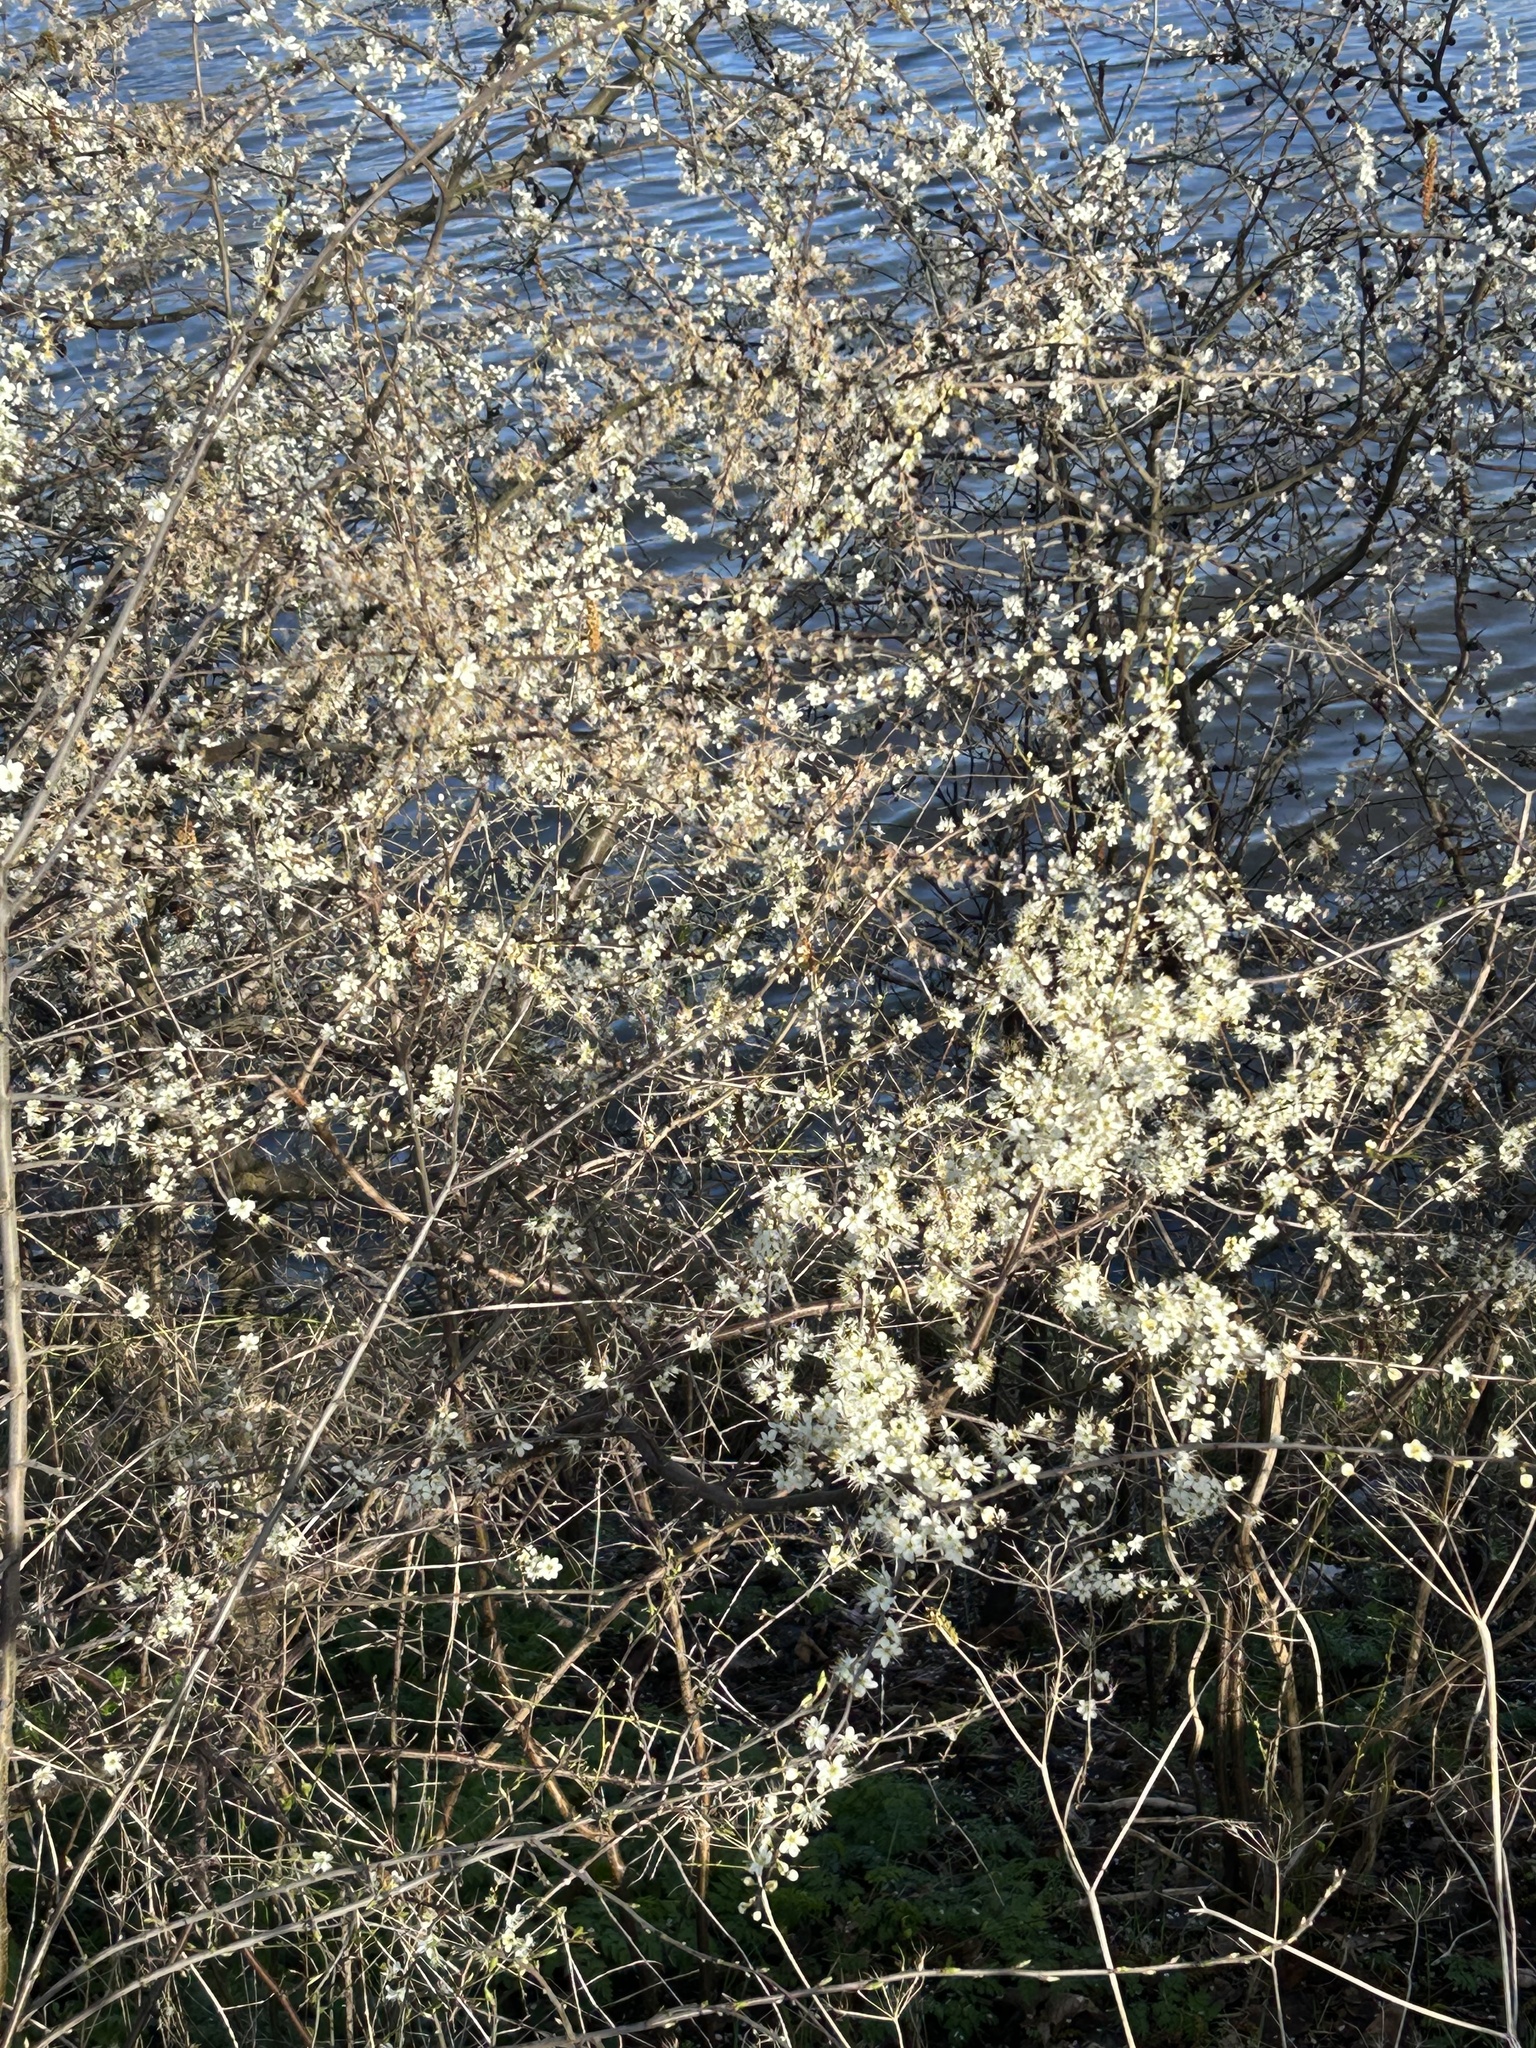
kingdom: Plantae
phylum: Tracheophyta
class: Magnoliopsida
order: Rosales
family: Rosaceae
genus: Prunus
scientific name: Prunus spinosa
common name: Blackthorn
